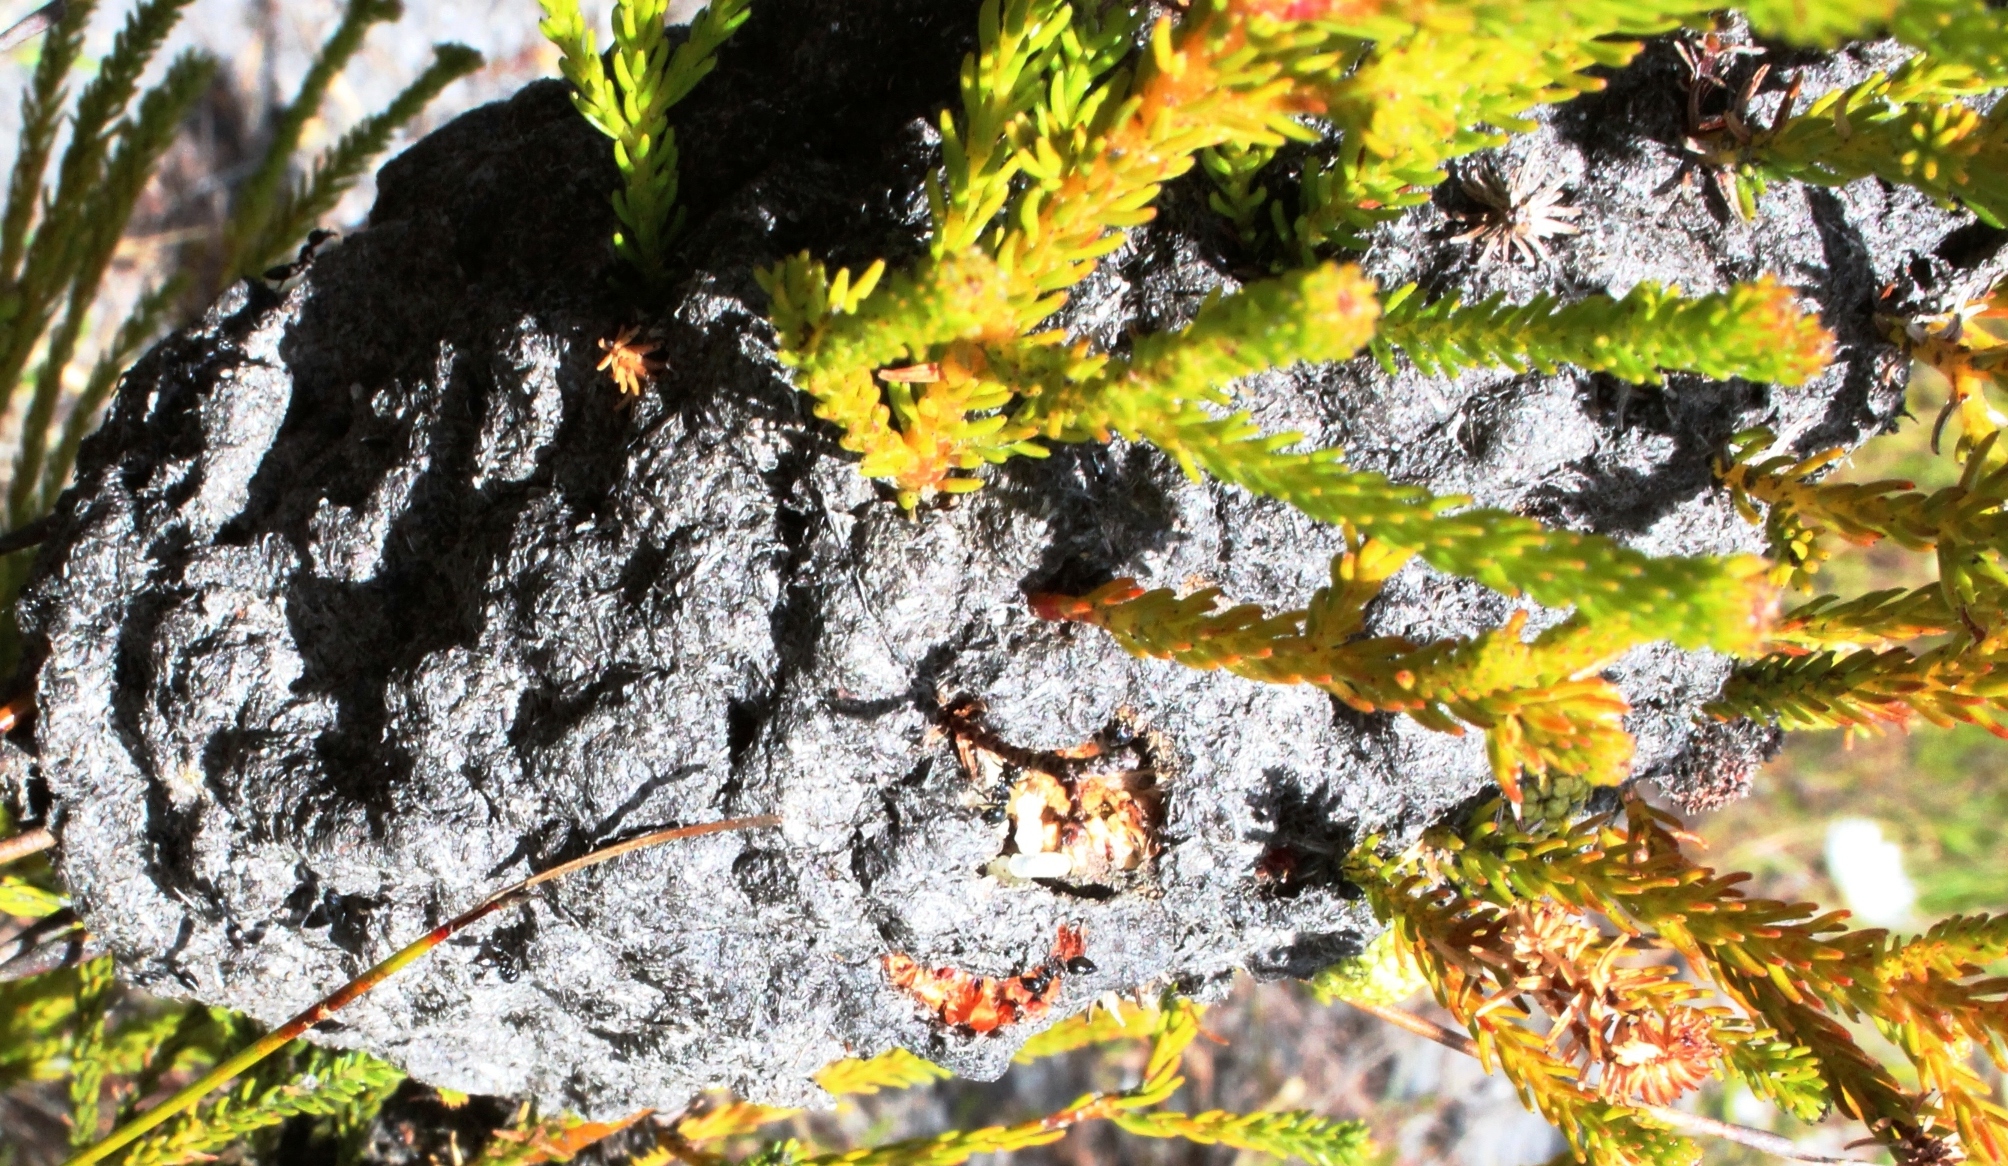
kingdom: Animalia
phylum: Arthropoda
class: Insecta
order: Hymenoptera
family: Formicidae
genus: Crematogaster
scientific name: Crematogaster peringueyi
